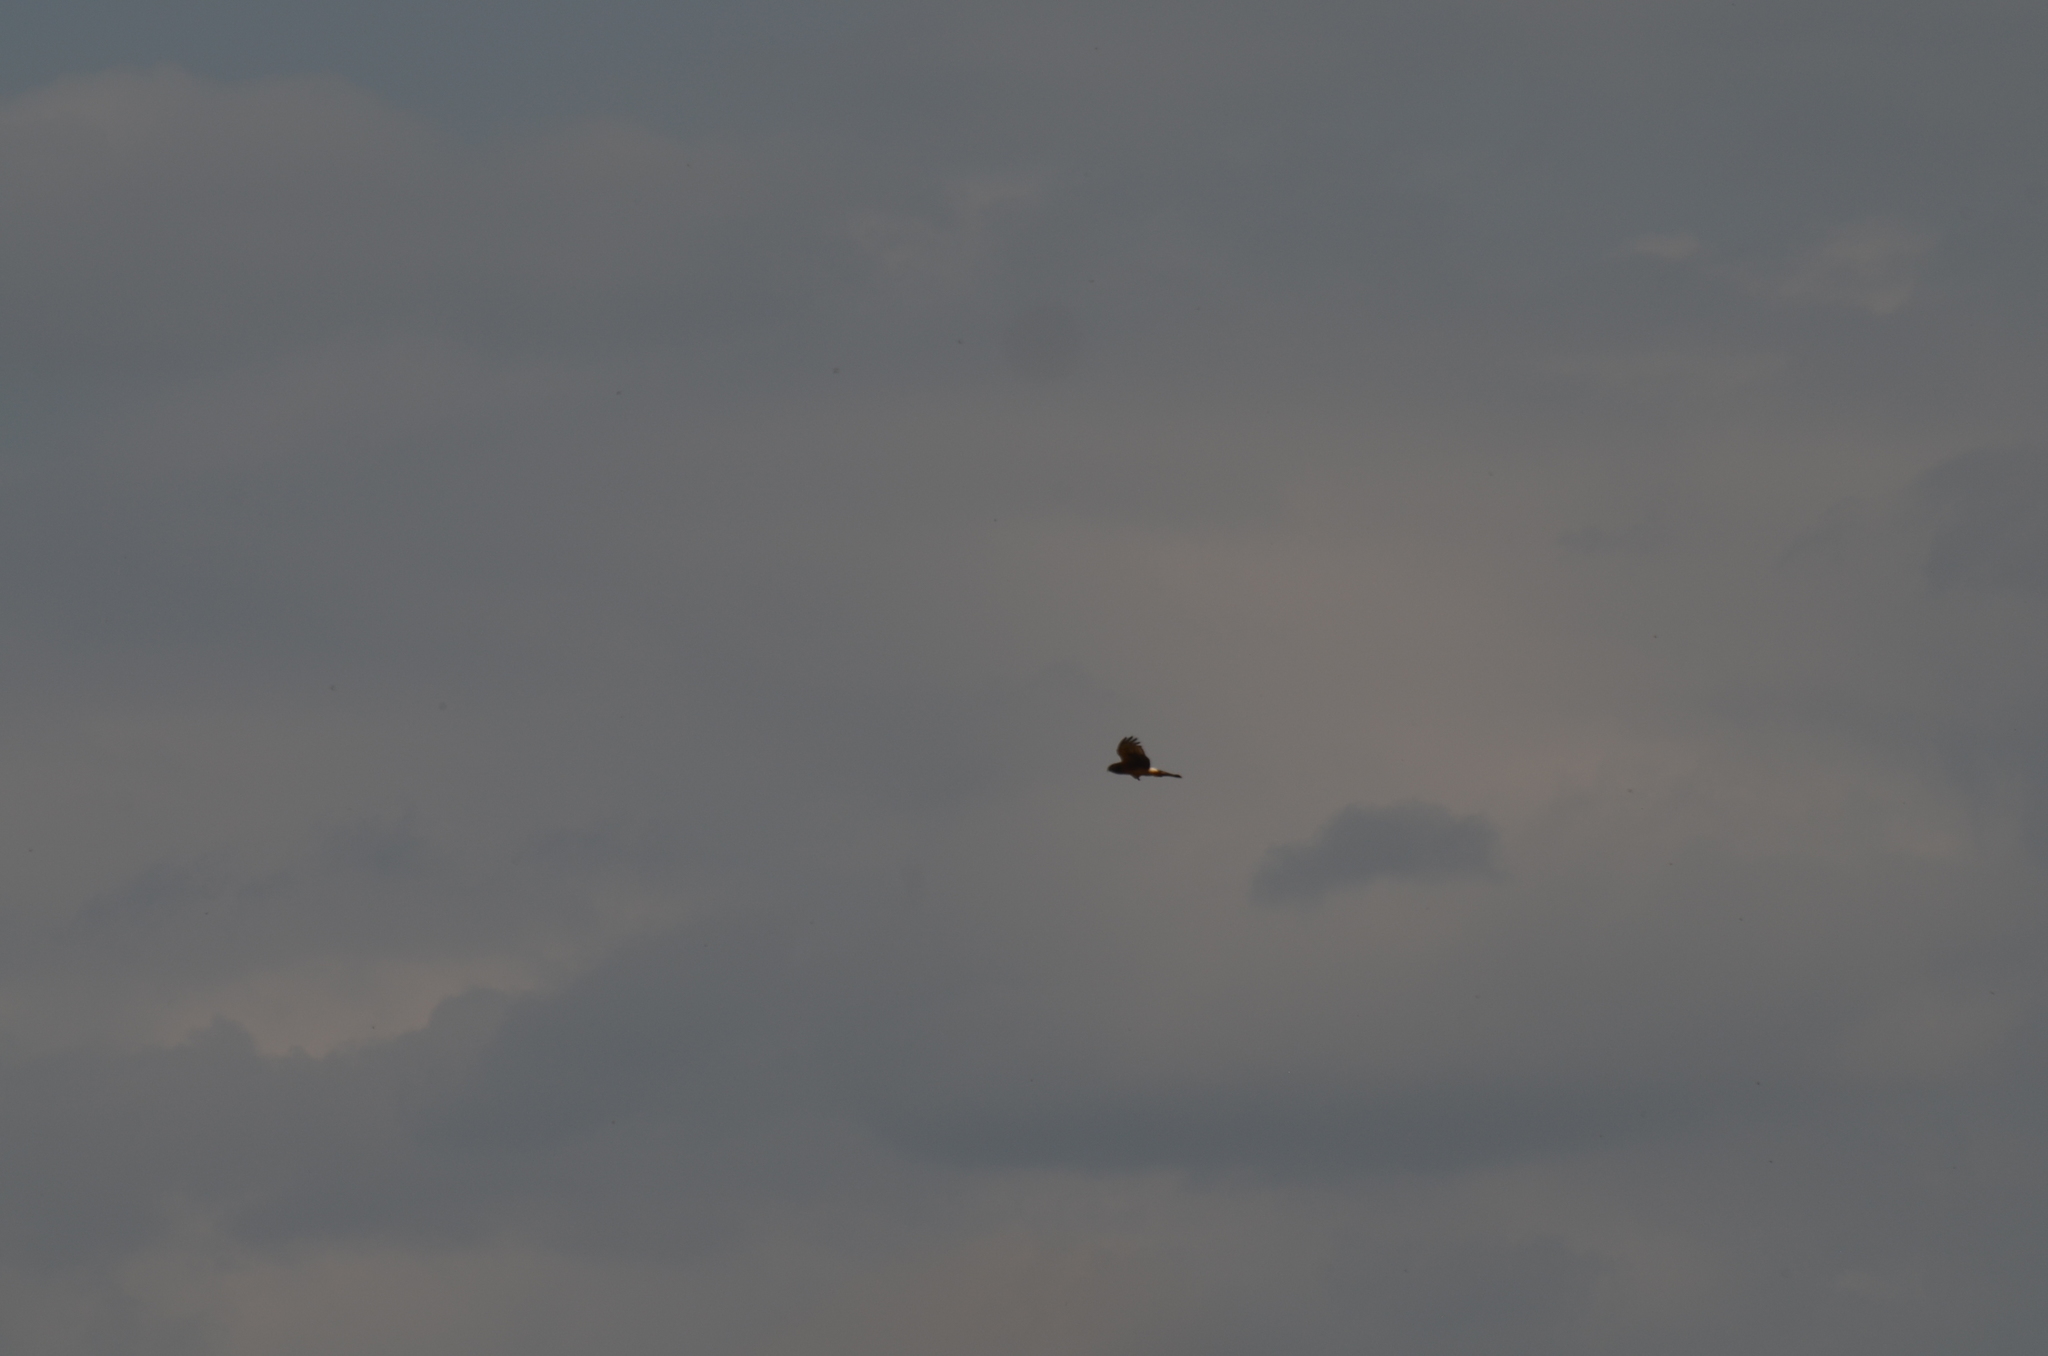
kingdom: Animalia
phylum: Chordata
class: Aves
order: Accipitriformes
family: Accipitridae
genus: Circus
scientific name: Circus cyaneus
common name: Hen harrier
